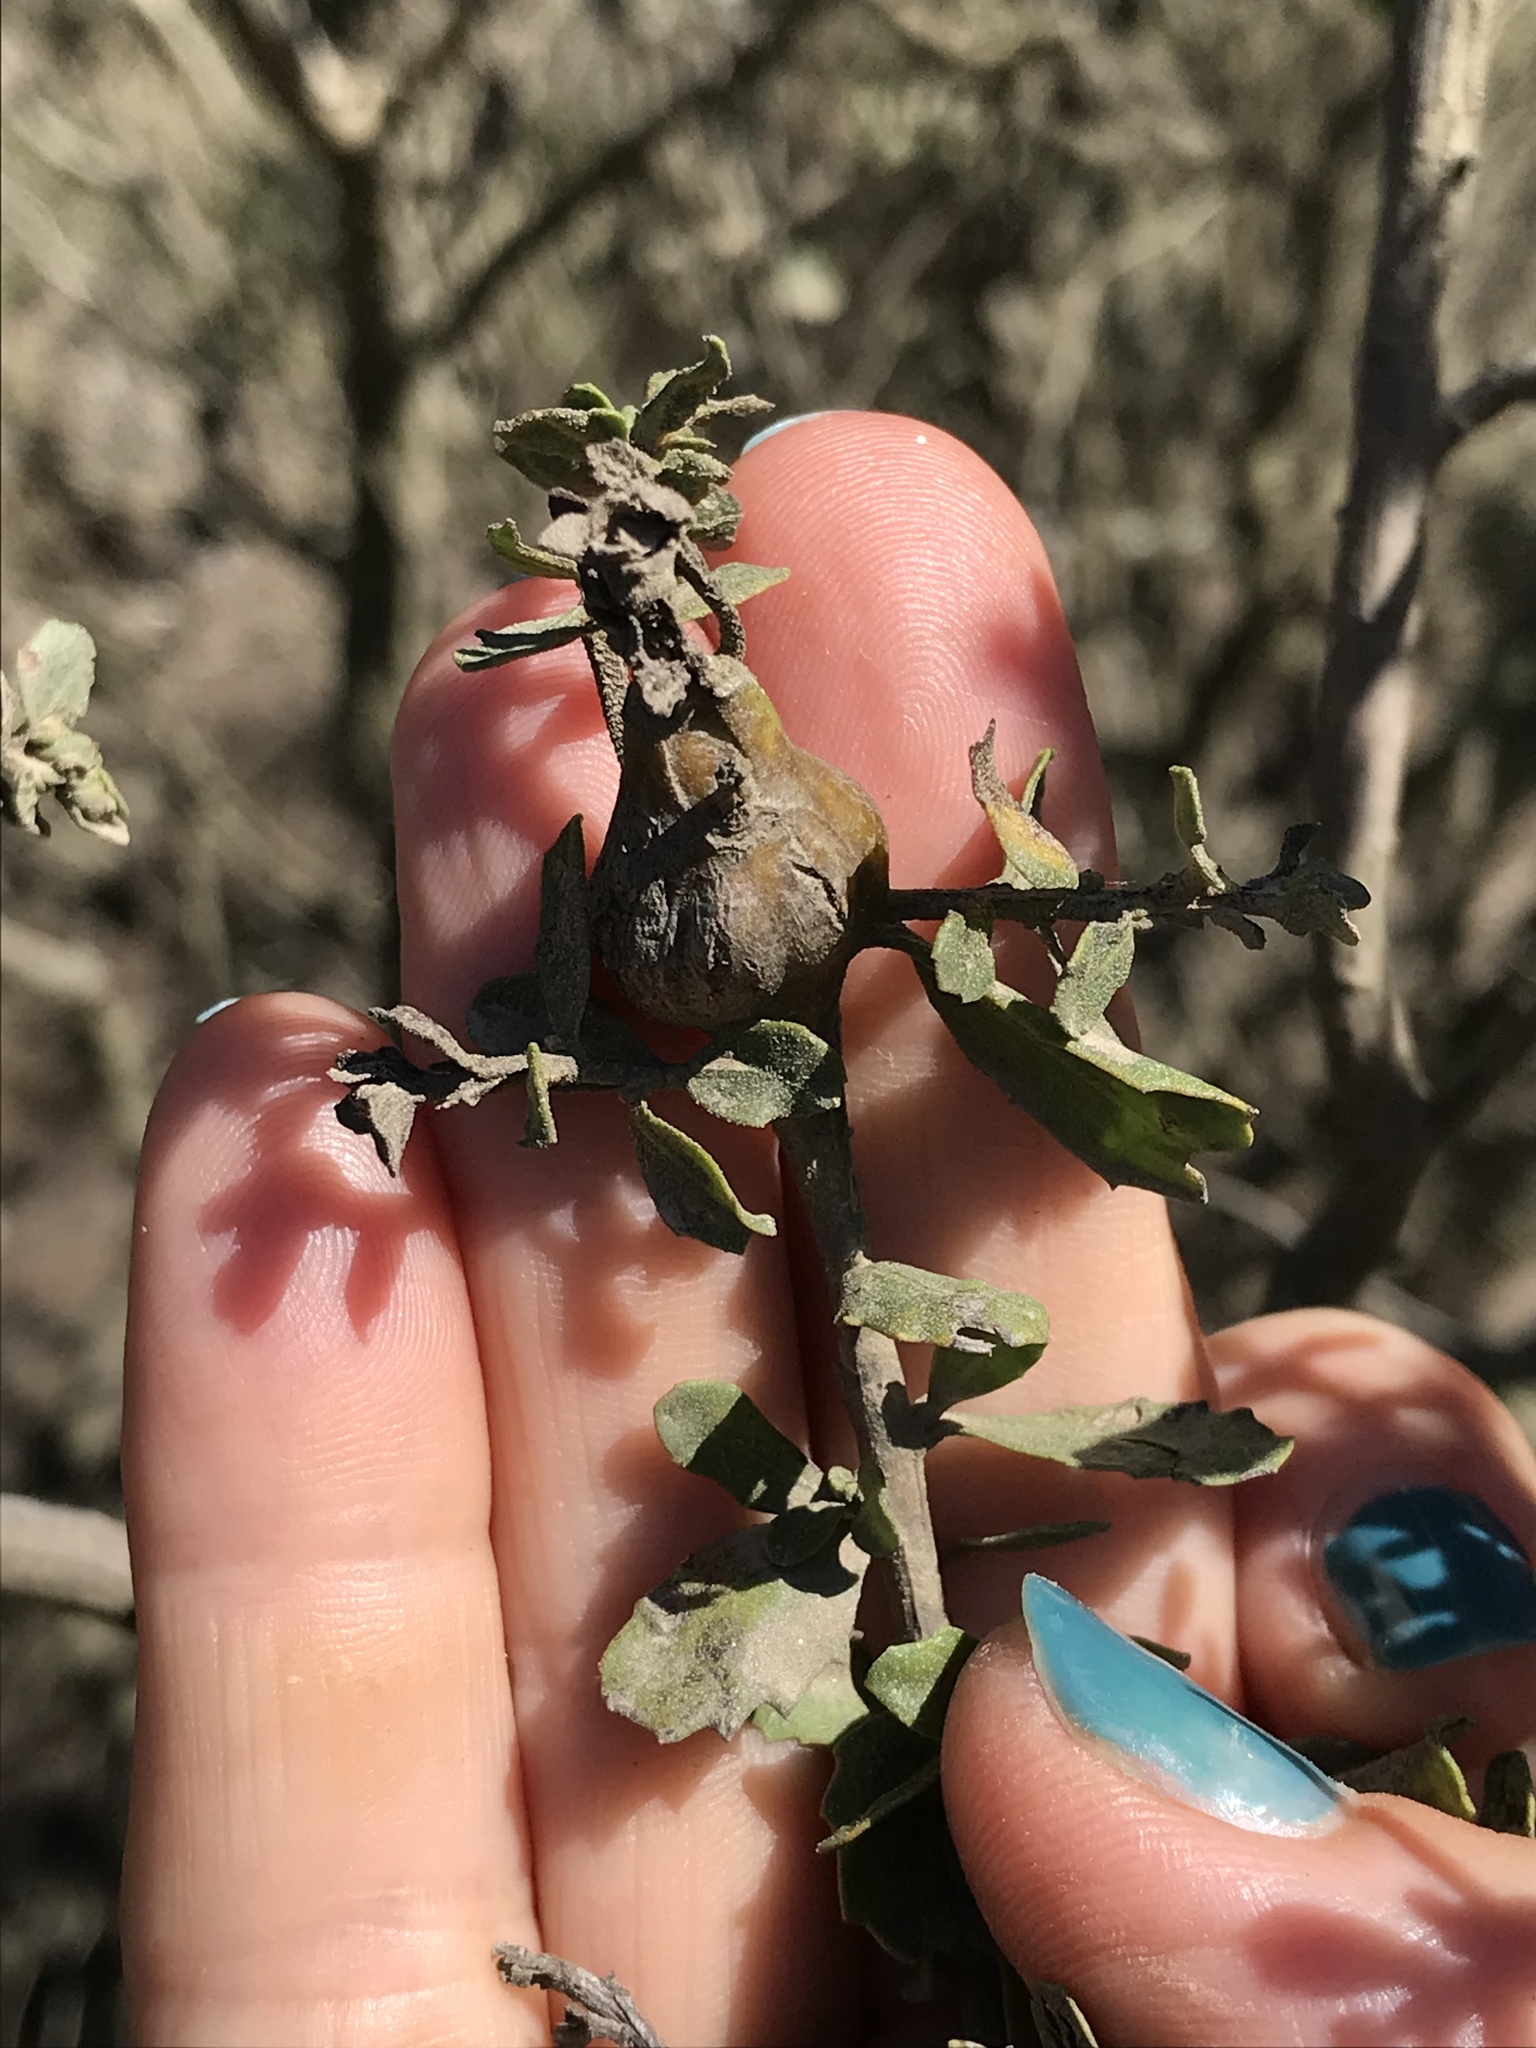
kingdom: Animalia
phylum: Arthropoda
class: Insecta
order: Lepidoptera
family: Gelechiidae
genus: Gnorimoschema
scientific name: Gnorimoschema baccharisella
